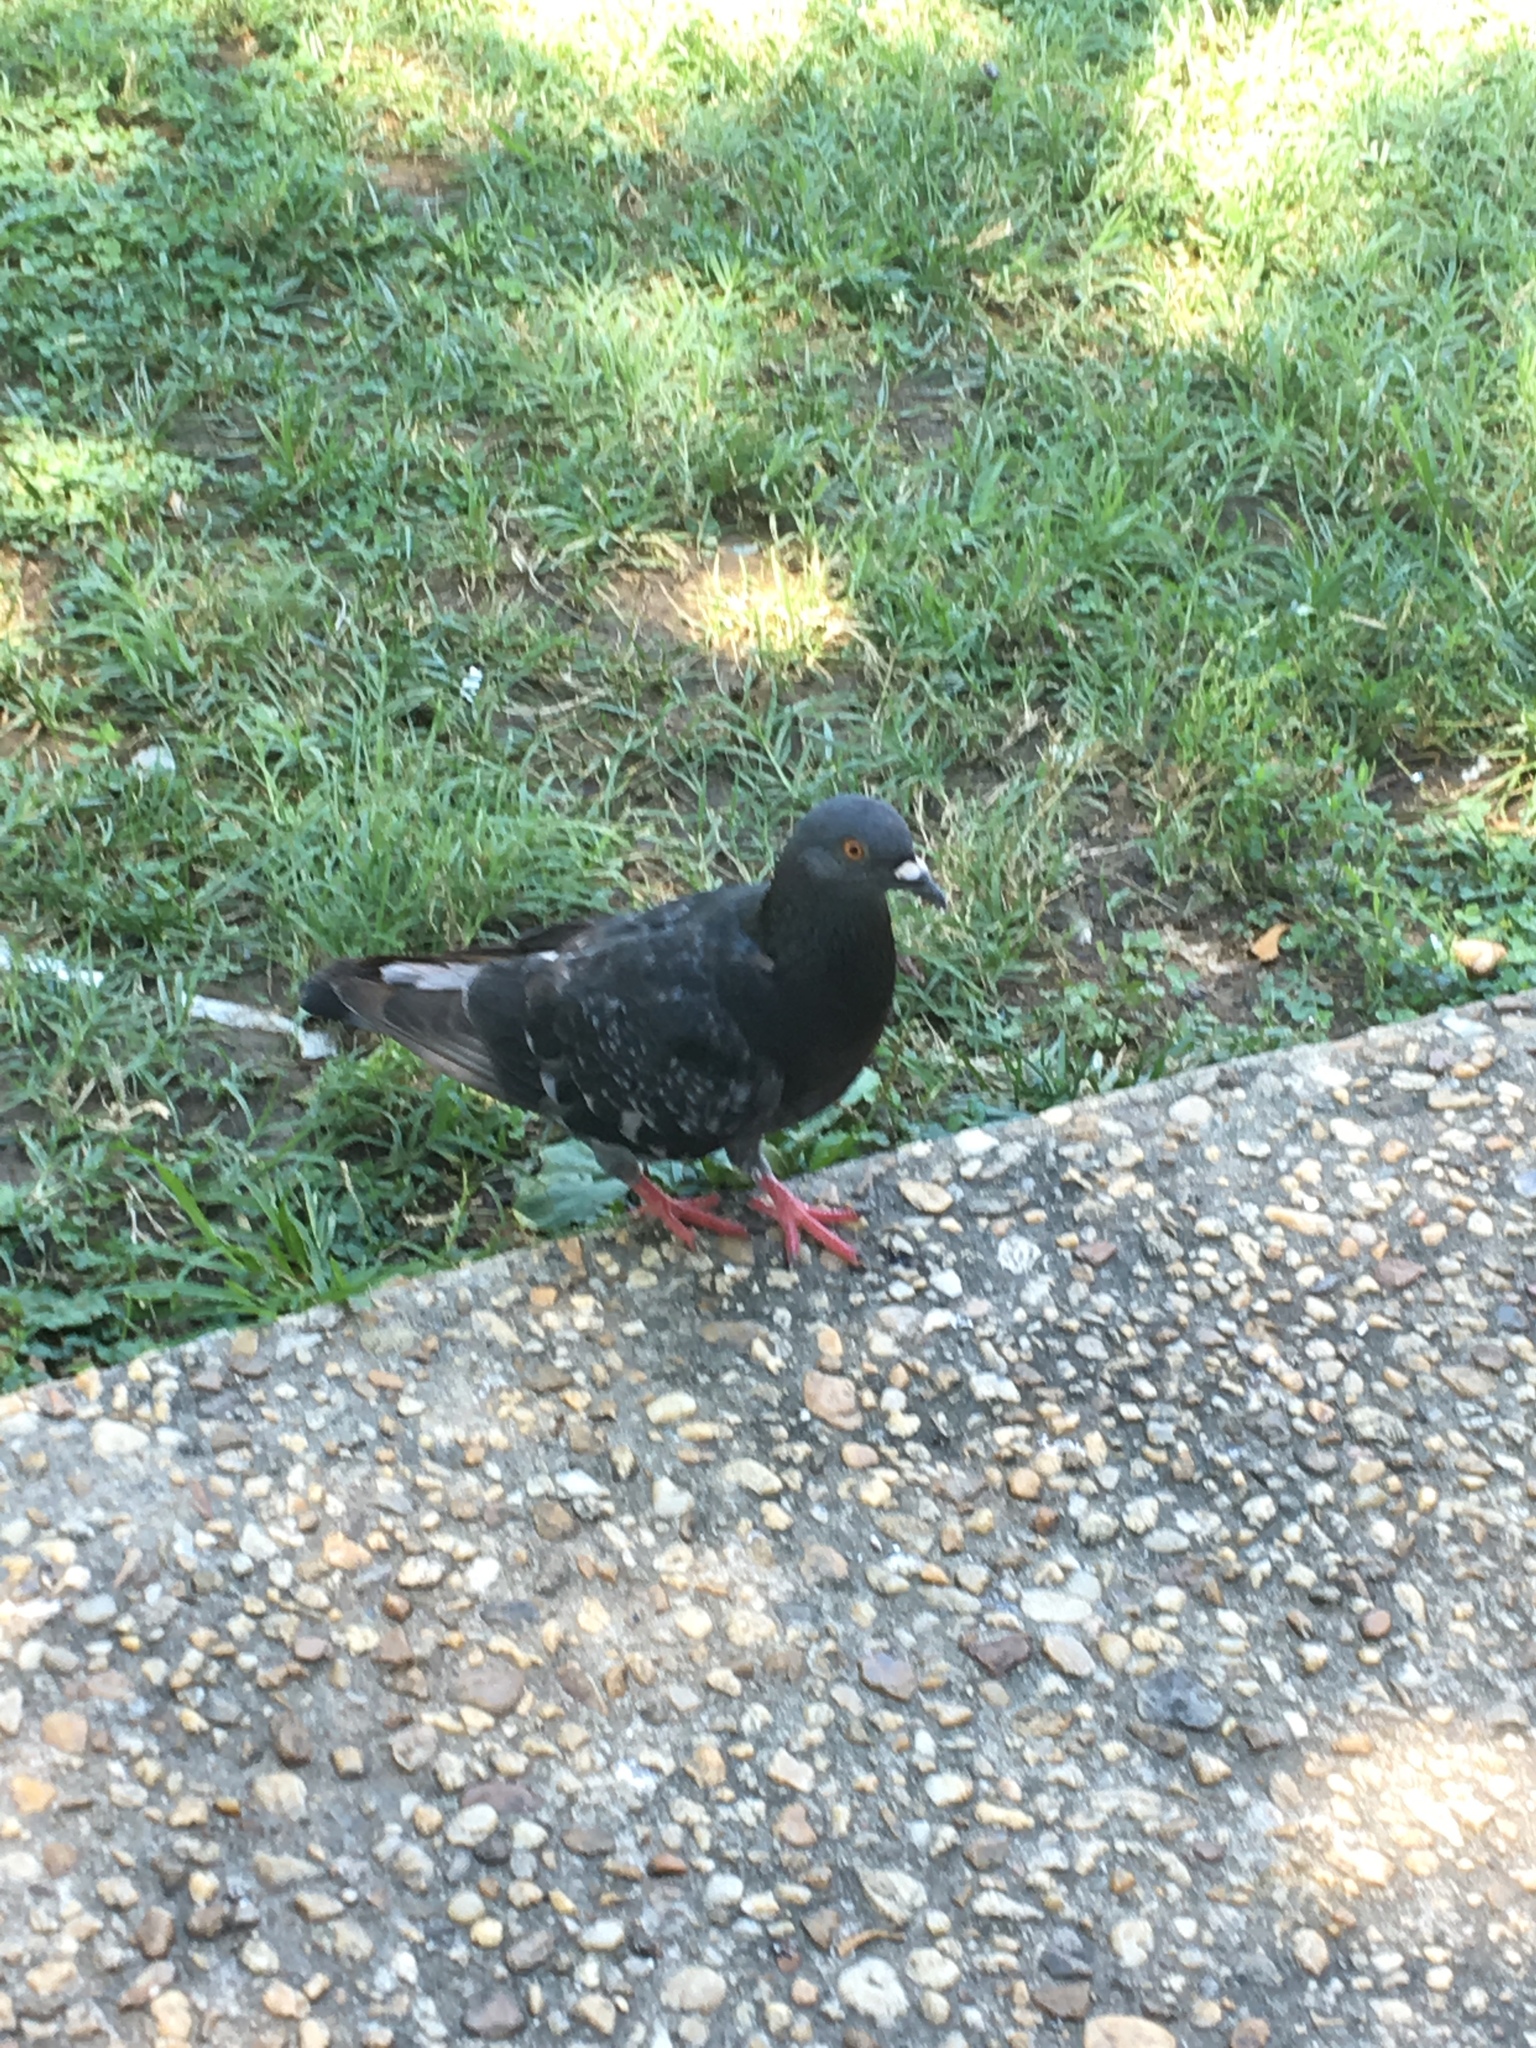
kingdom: Animalia
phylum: Chordata
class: Aves
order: Columbiformes
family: Columbidae
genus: Columba
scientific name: Columba livia
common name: Rock pigeon
